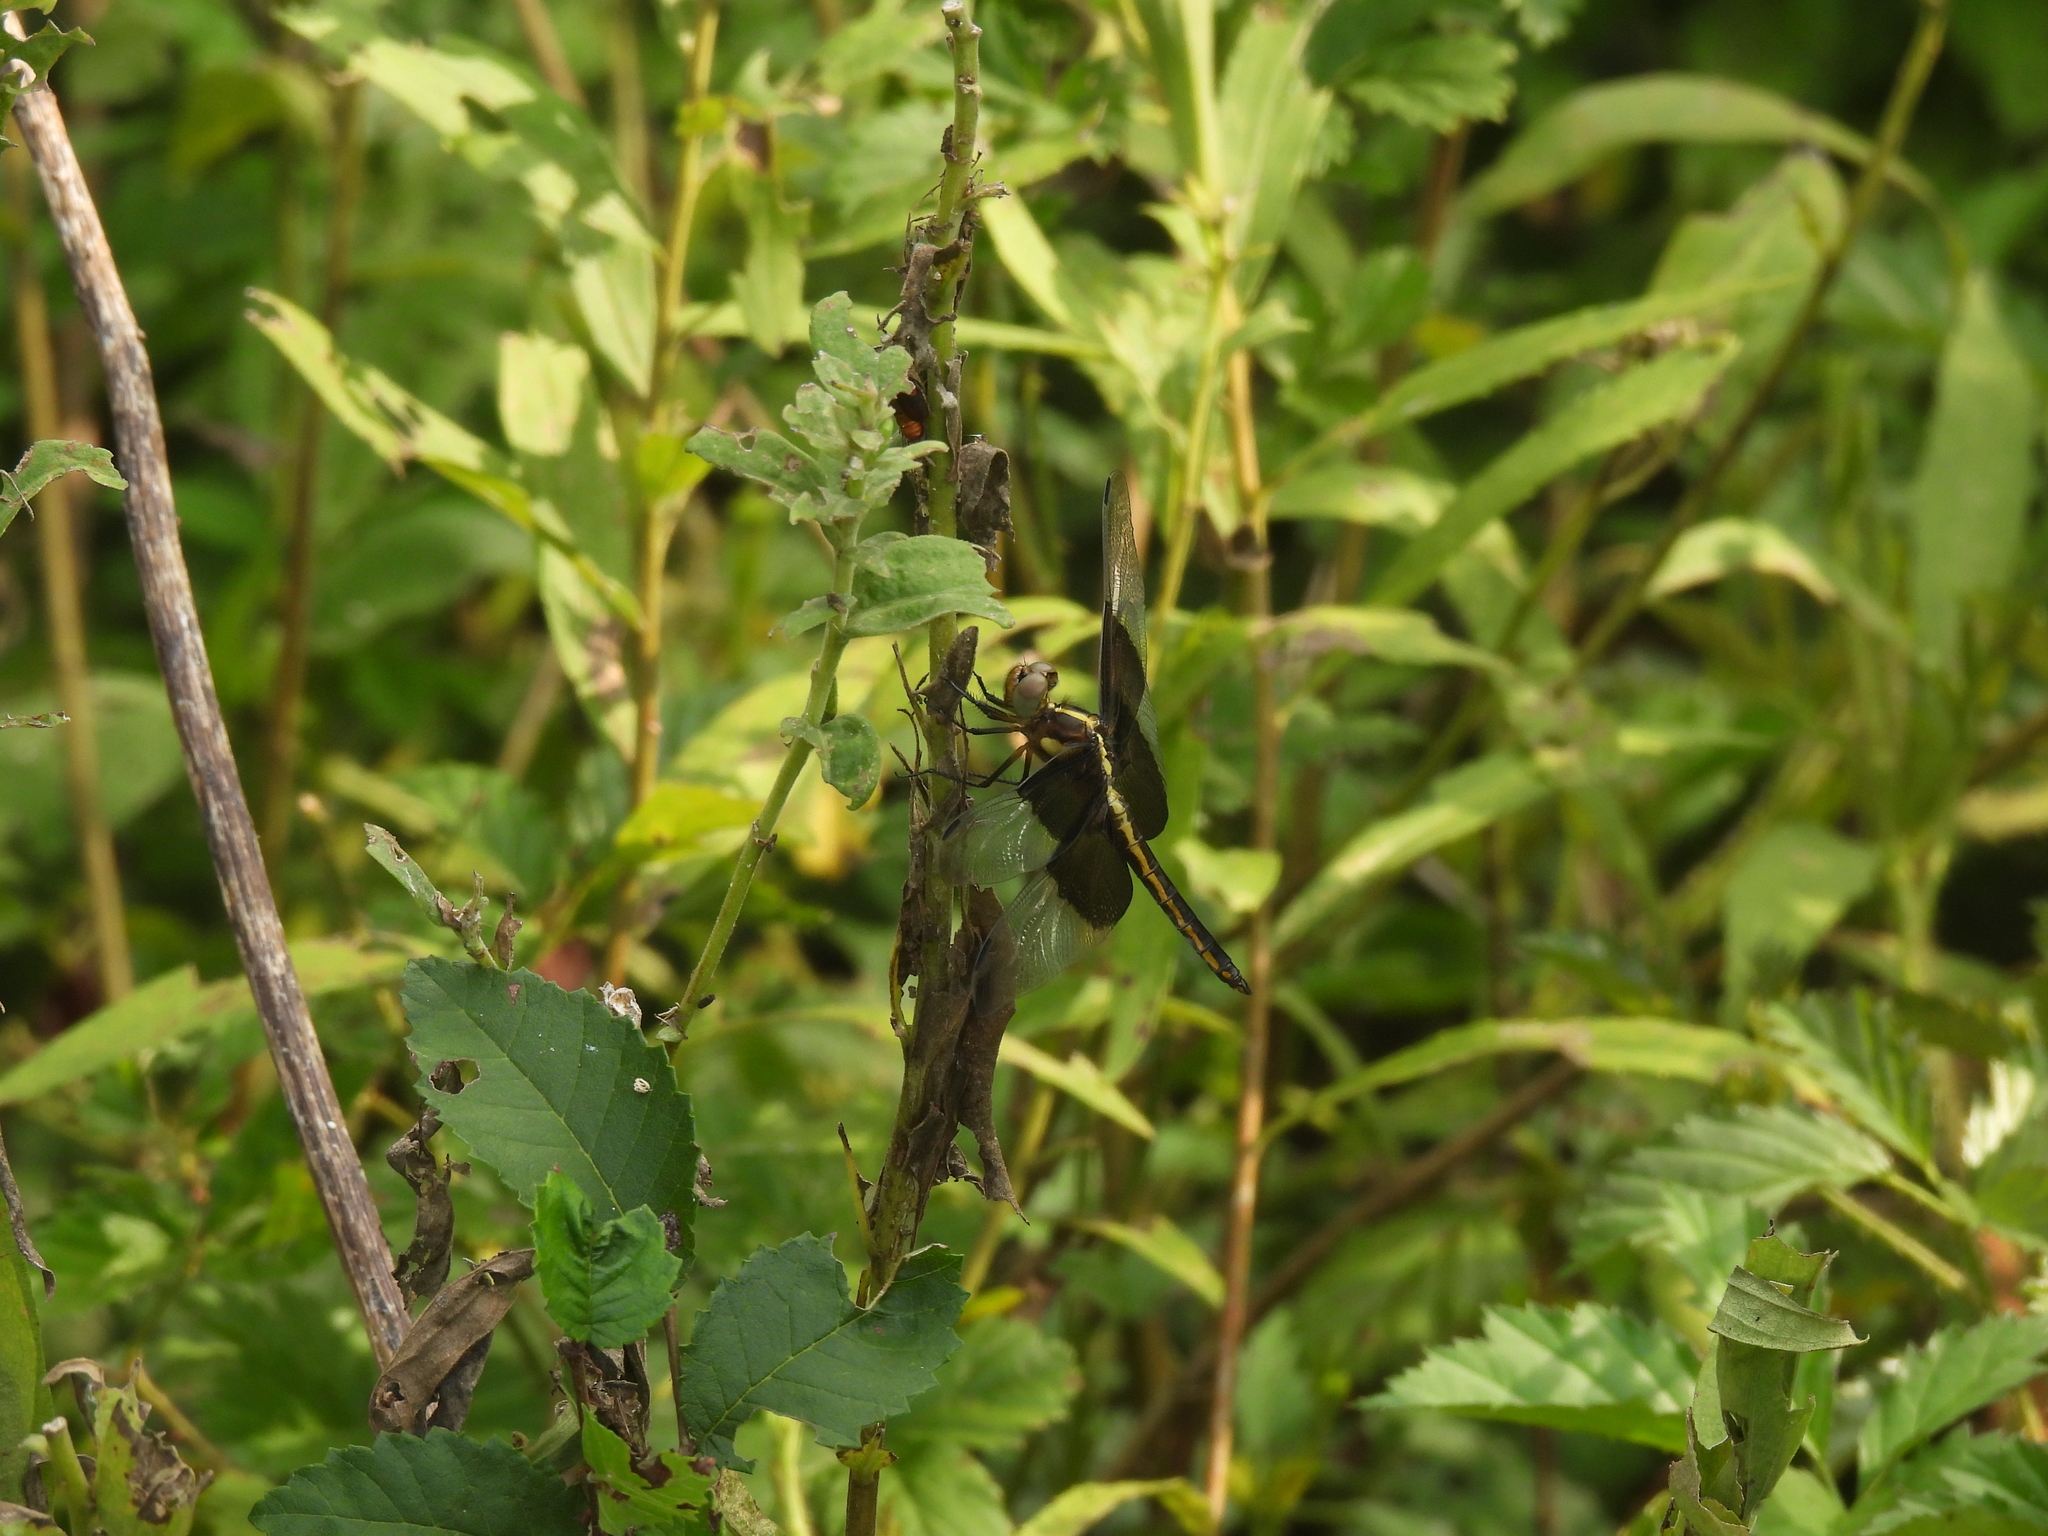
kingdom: Animalia
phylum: Arthropoda
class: Insecta
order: Odonata
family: Libellulidae
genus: Libellula
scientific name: Libellula luctuosa
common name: Widow skimmer
